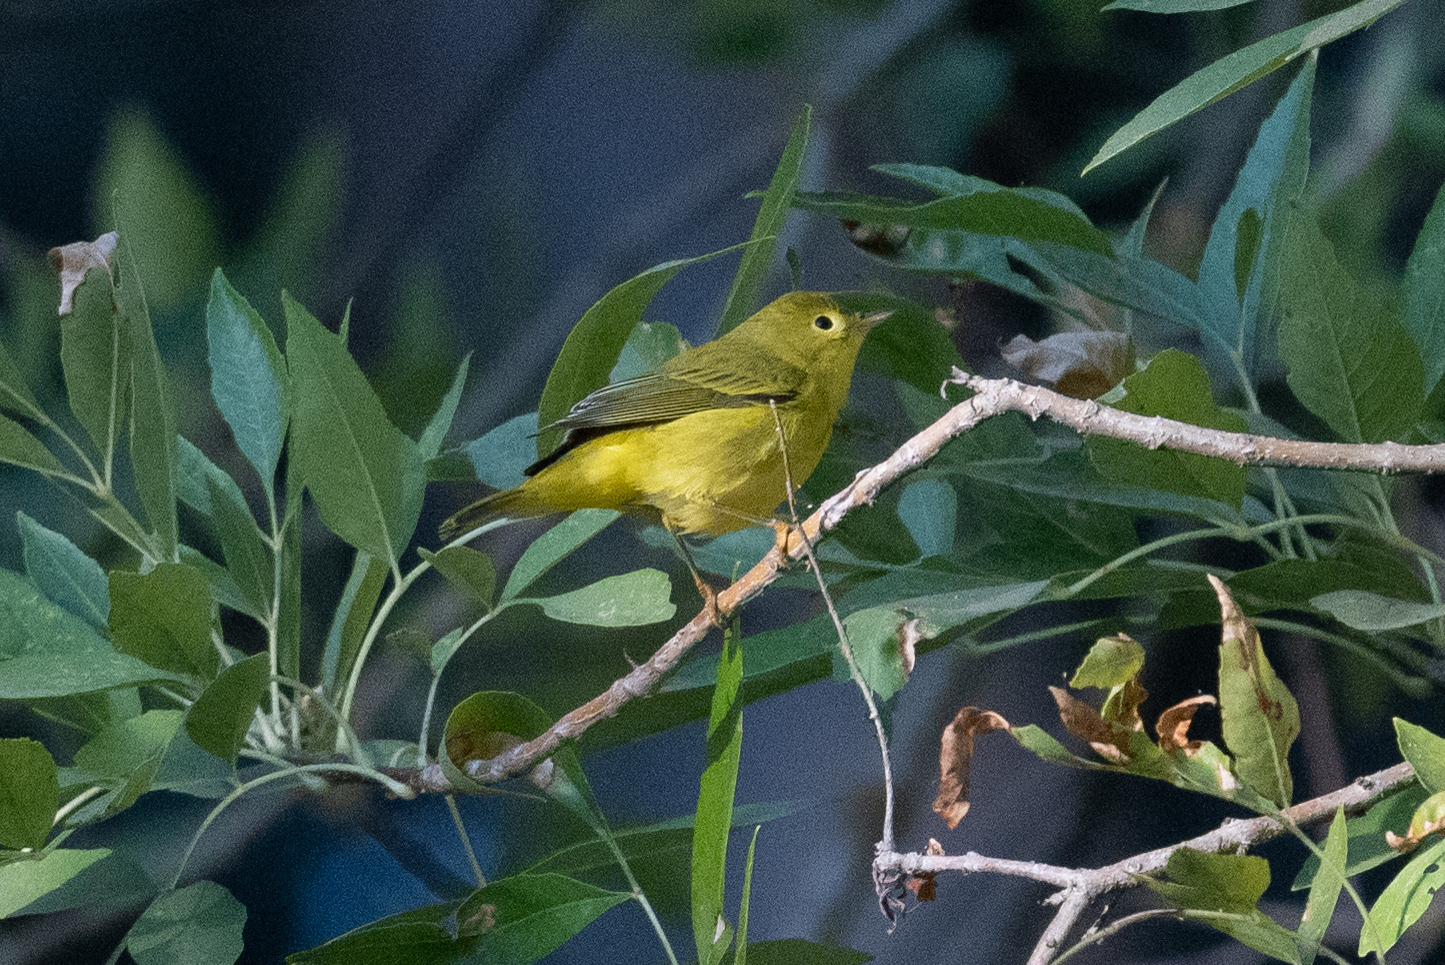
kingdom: Animalia
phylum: Chordata
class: Aves
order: Passeriformes
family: Parulidae
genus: Setophaga
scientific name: Setophaga petechia
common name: Yellow warbler
